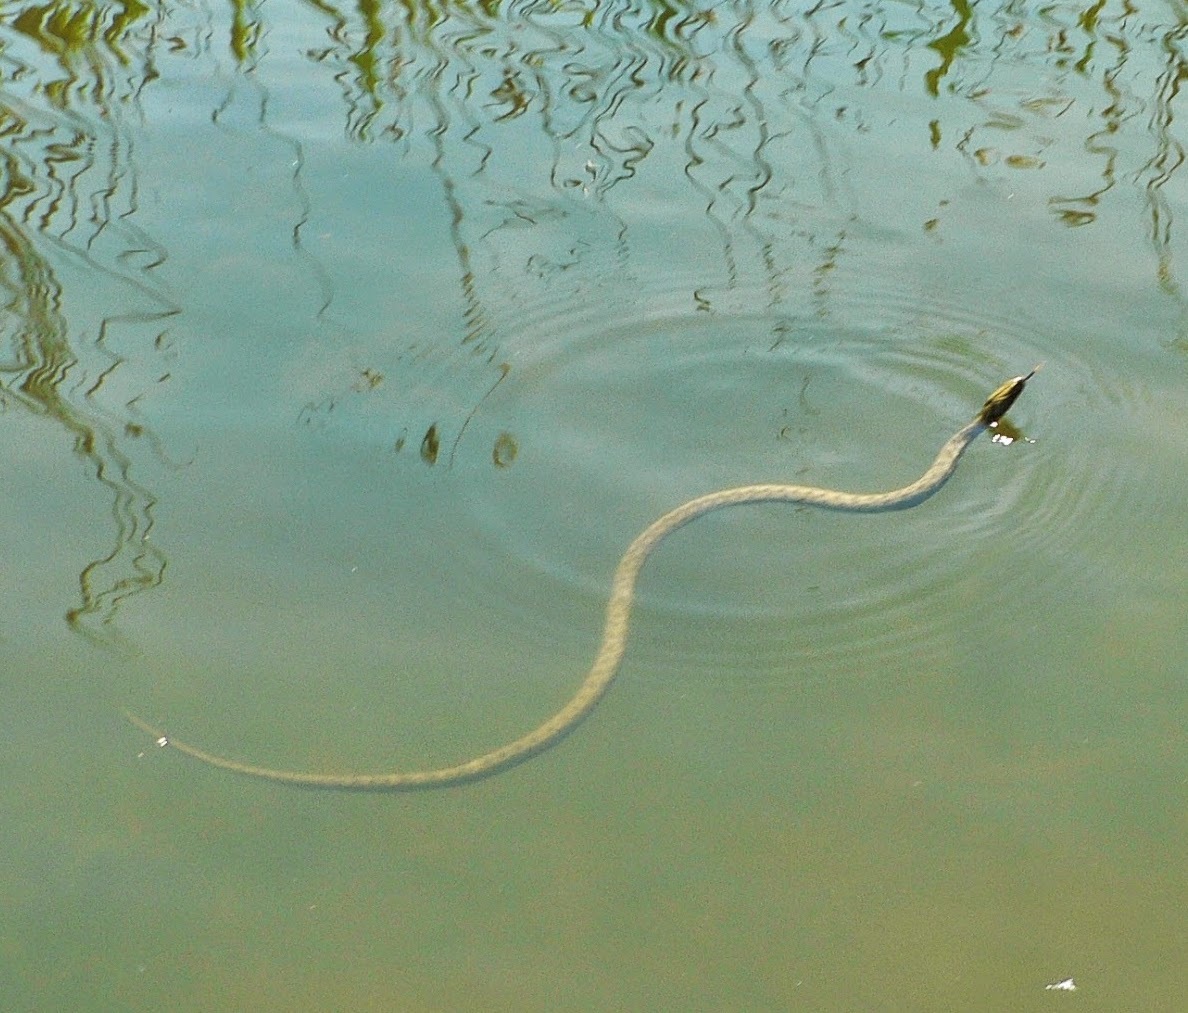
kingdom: Animalia
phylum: Chordata
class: Squamata
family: Colubridae
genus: Natrix
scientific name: Natrix tessellata
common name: Dice snake
